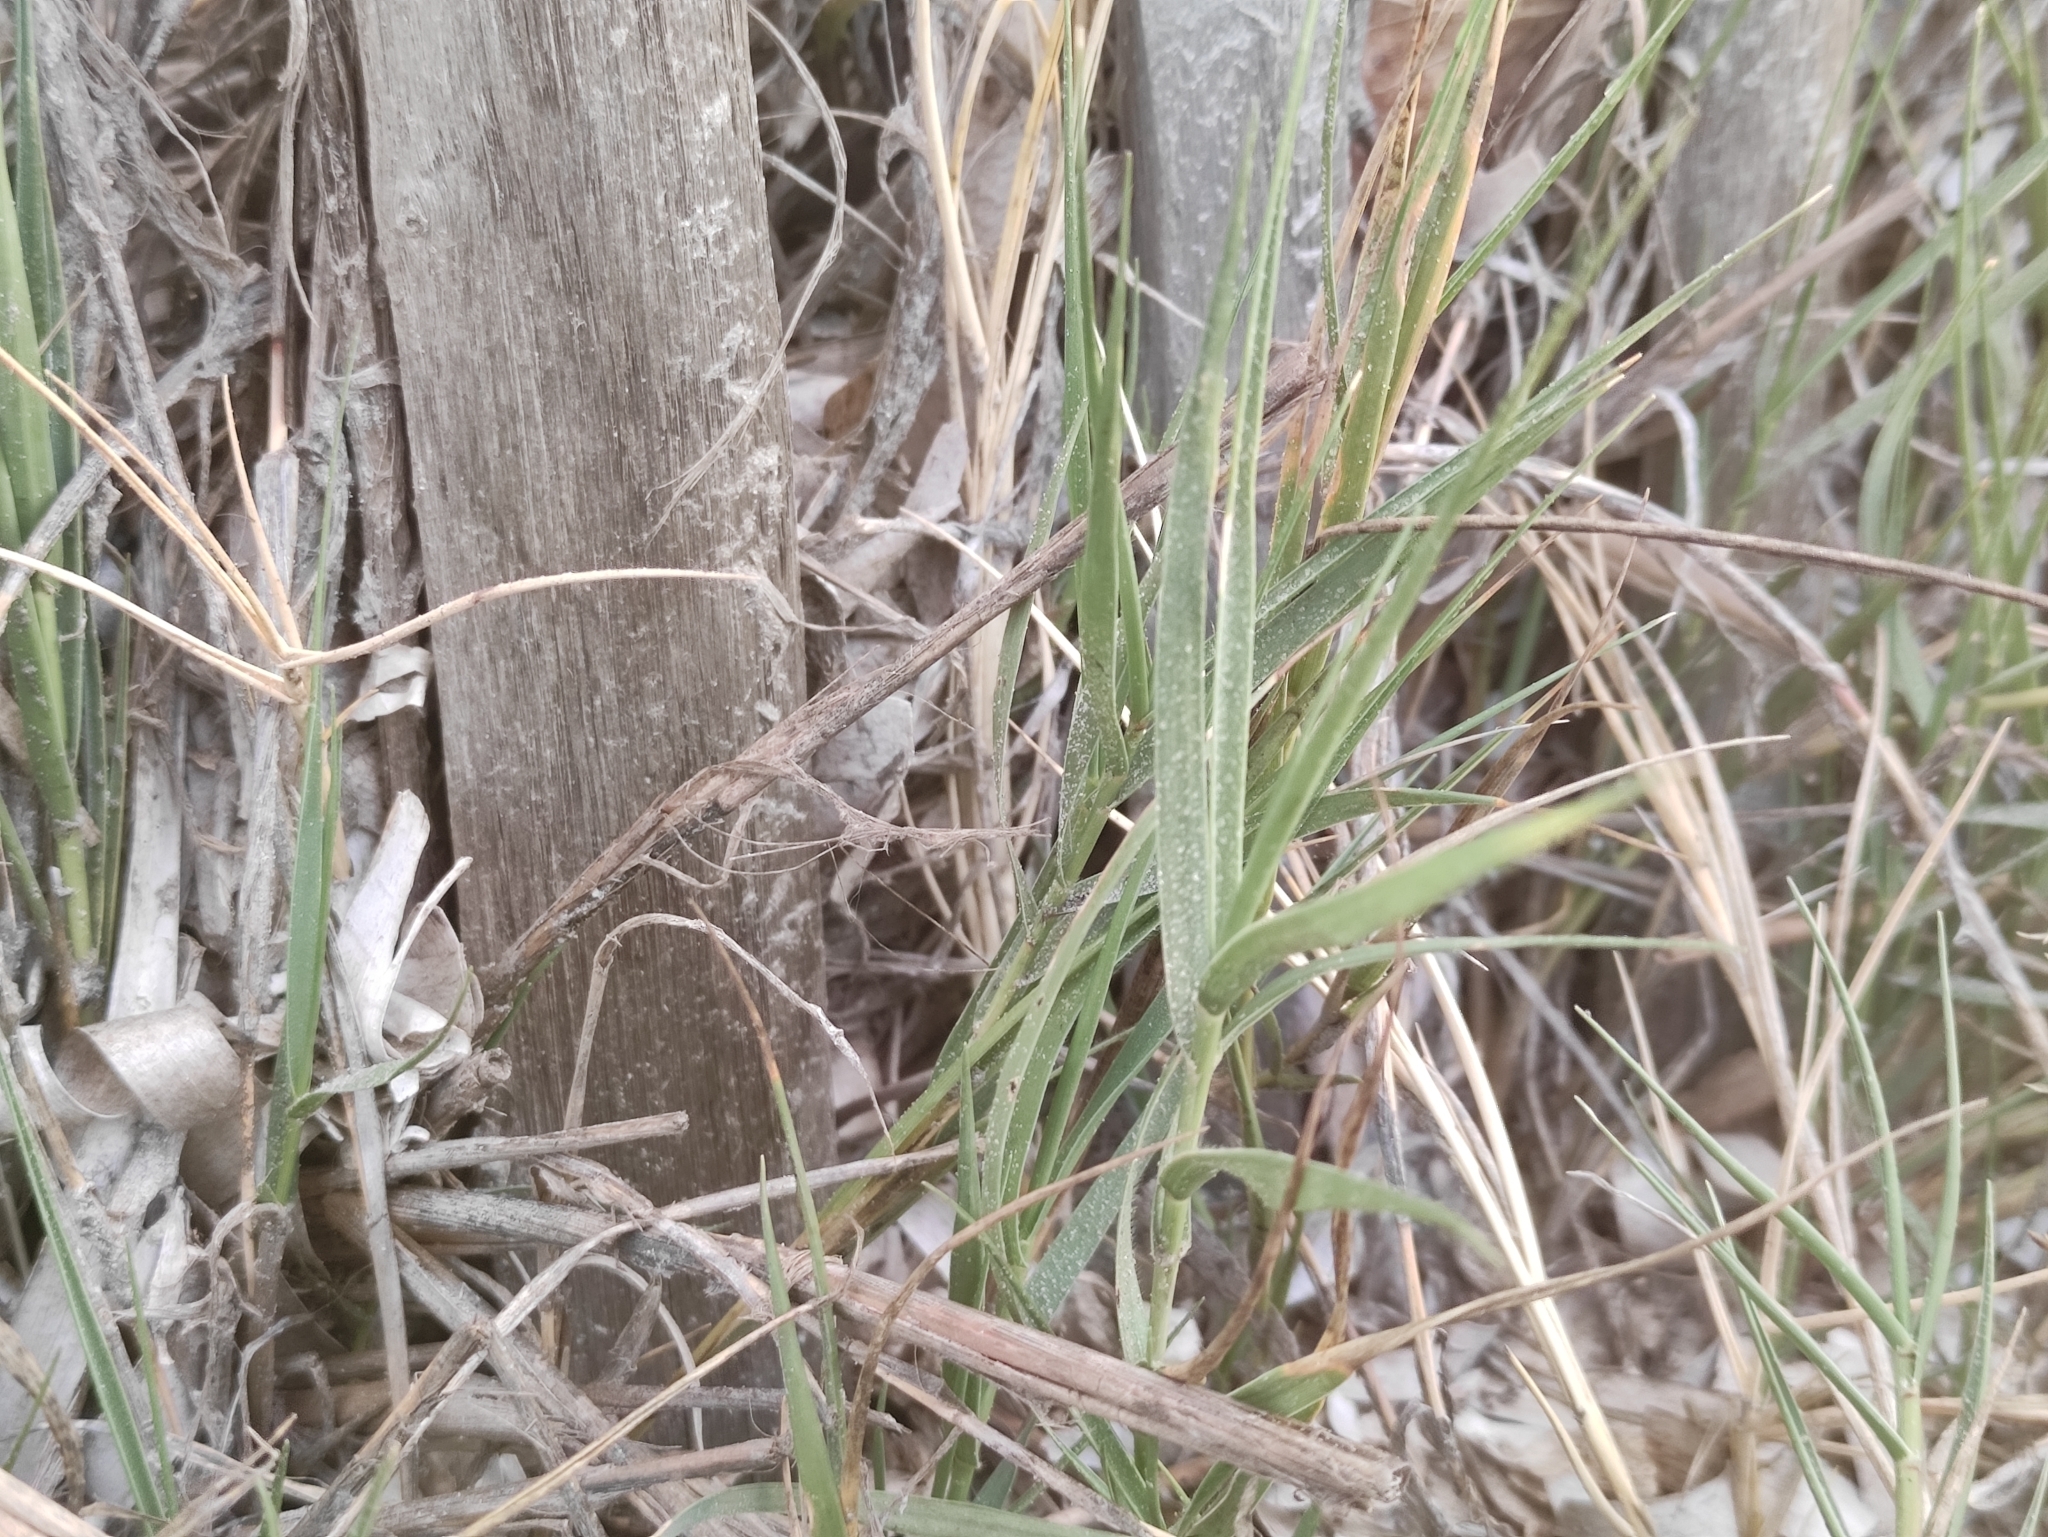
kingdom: Plantae
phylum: Tracheophyta
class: Liliopsida
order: Poales
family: Poaceae
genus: Sporobolus
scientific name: Sporobolus pungens
